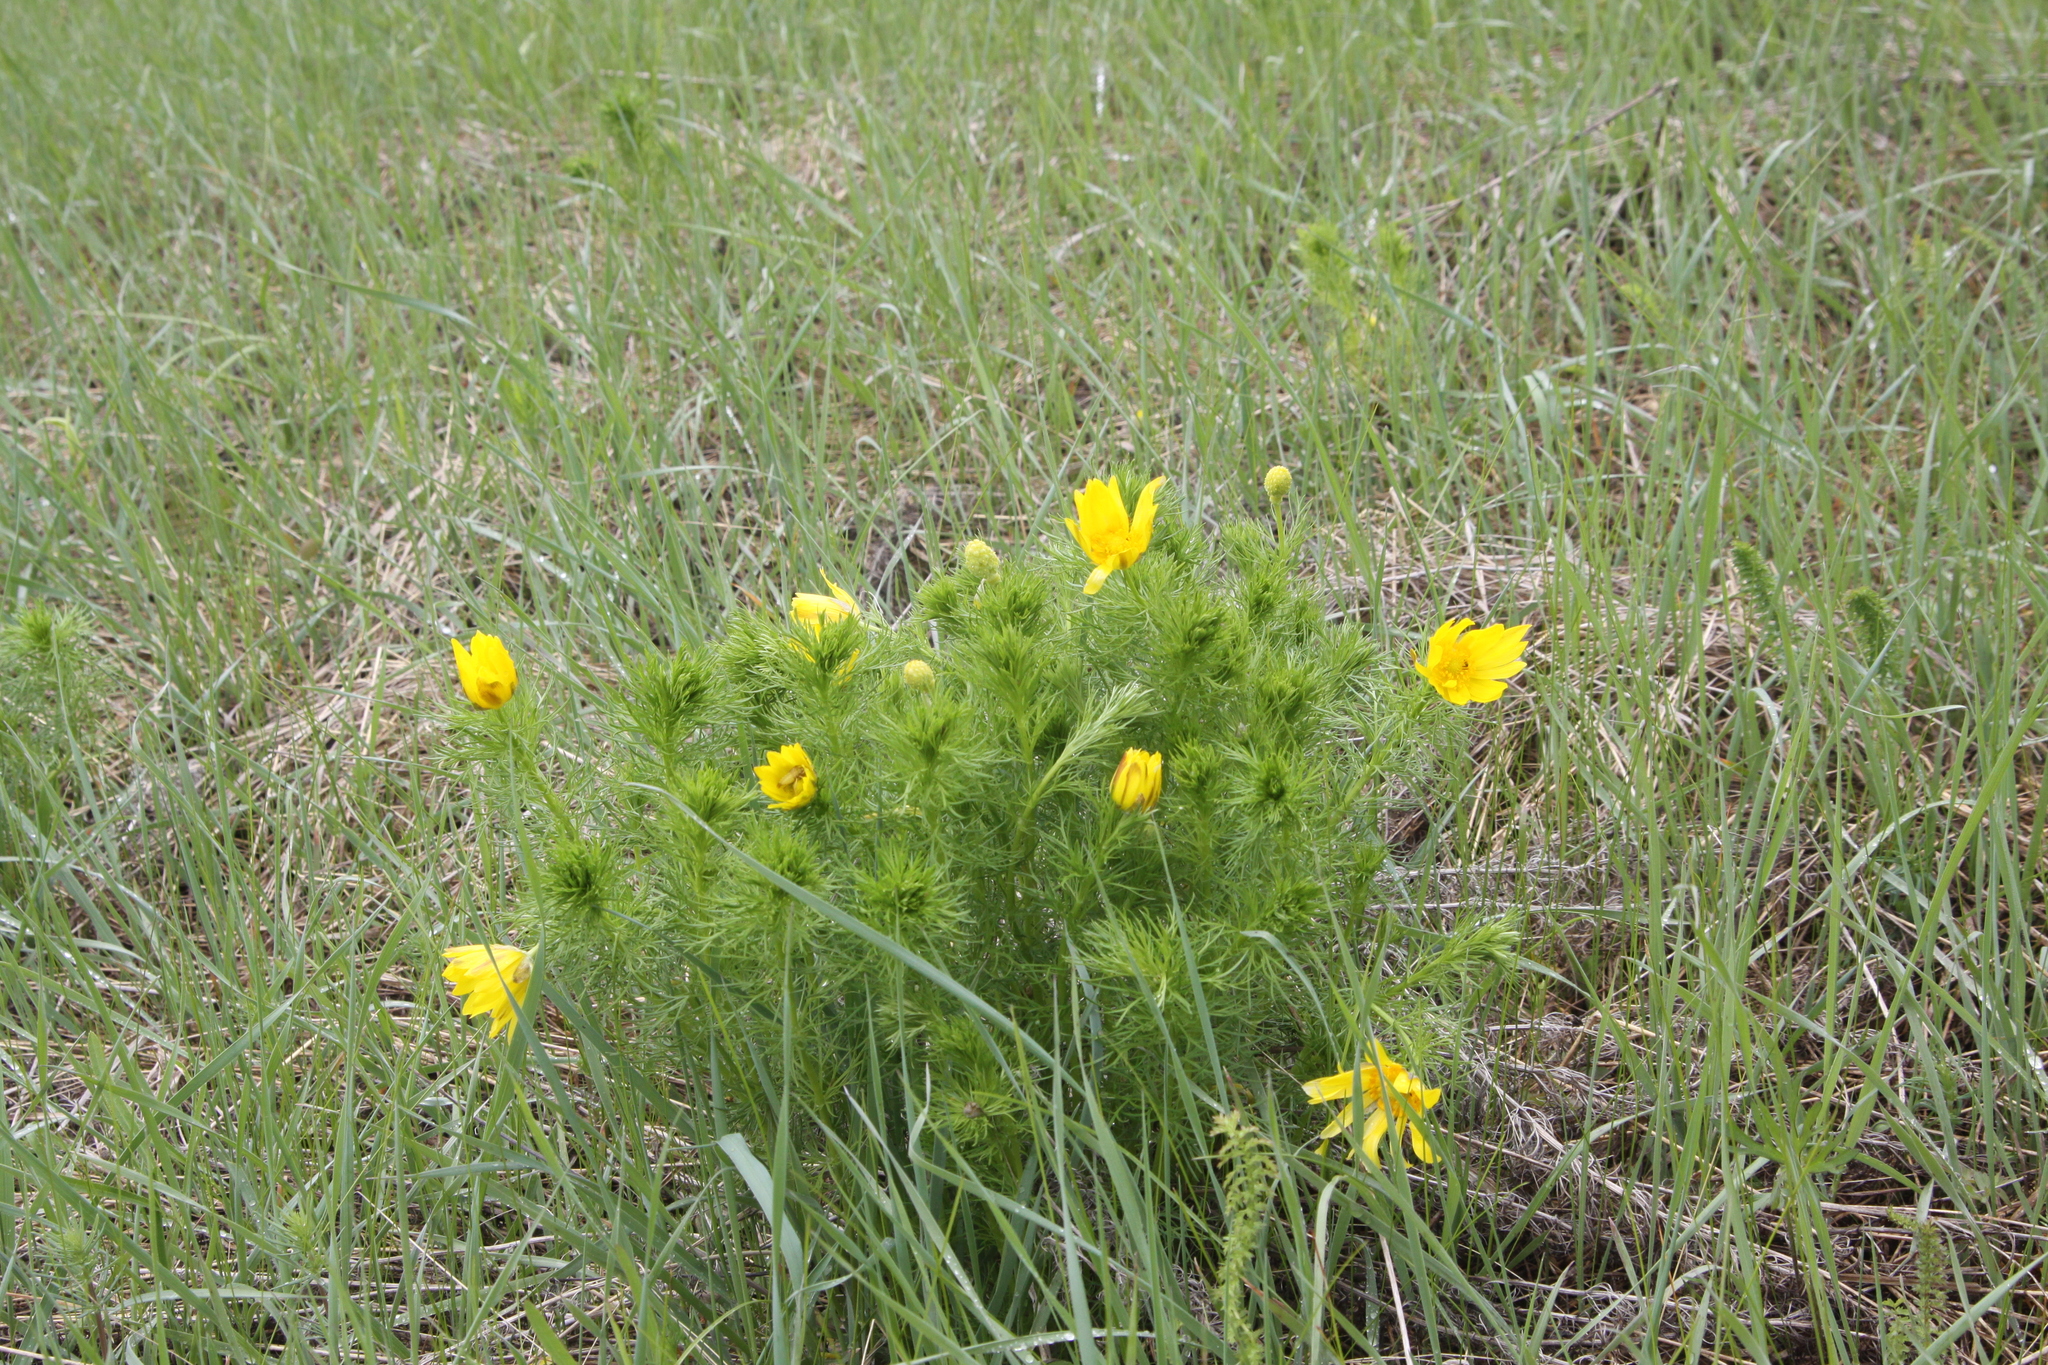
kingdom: Plantae
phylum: Tracheophyta
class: Magnoliopsida
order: Ranunculales
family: Ranunculaceae
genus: Adonis
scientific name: Adonis vernalis
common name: Yellow pheasants-eye
